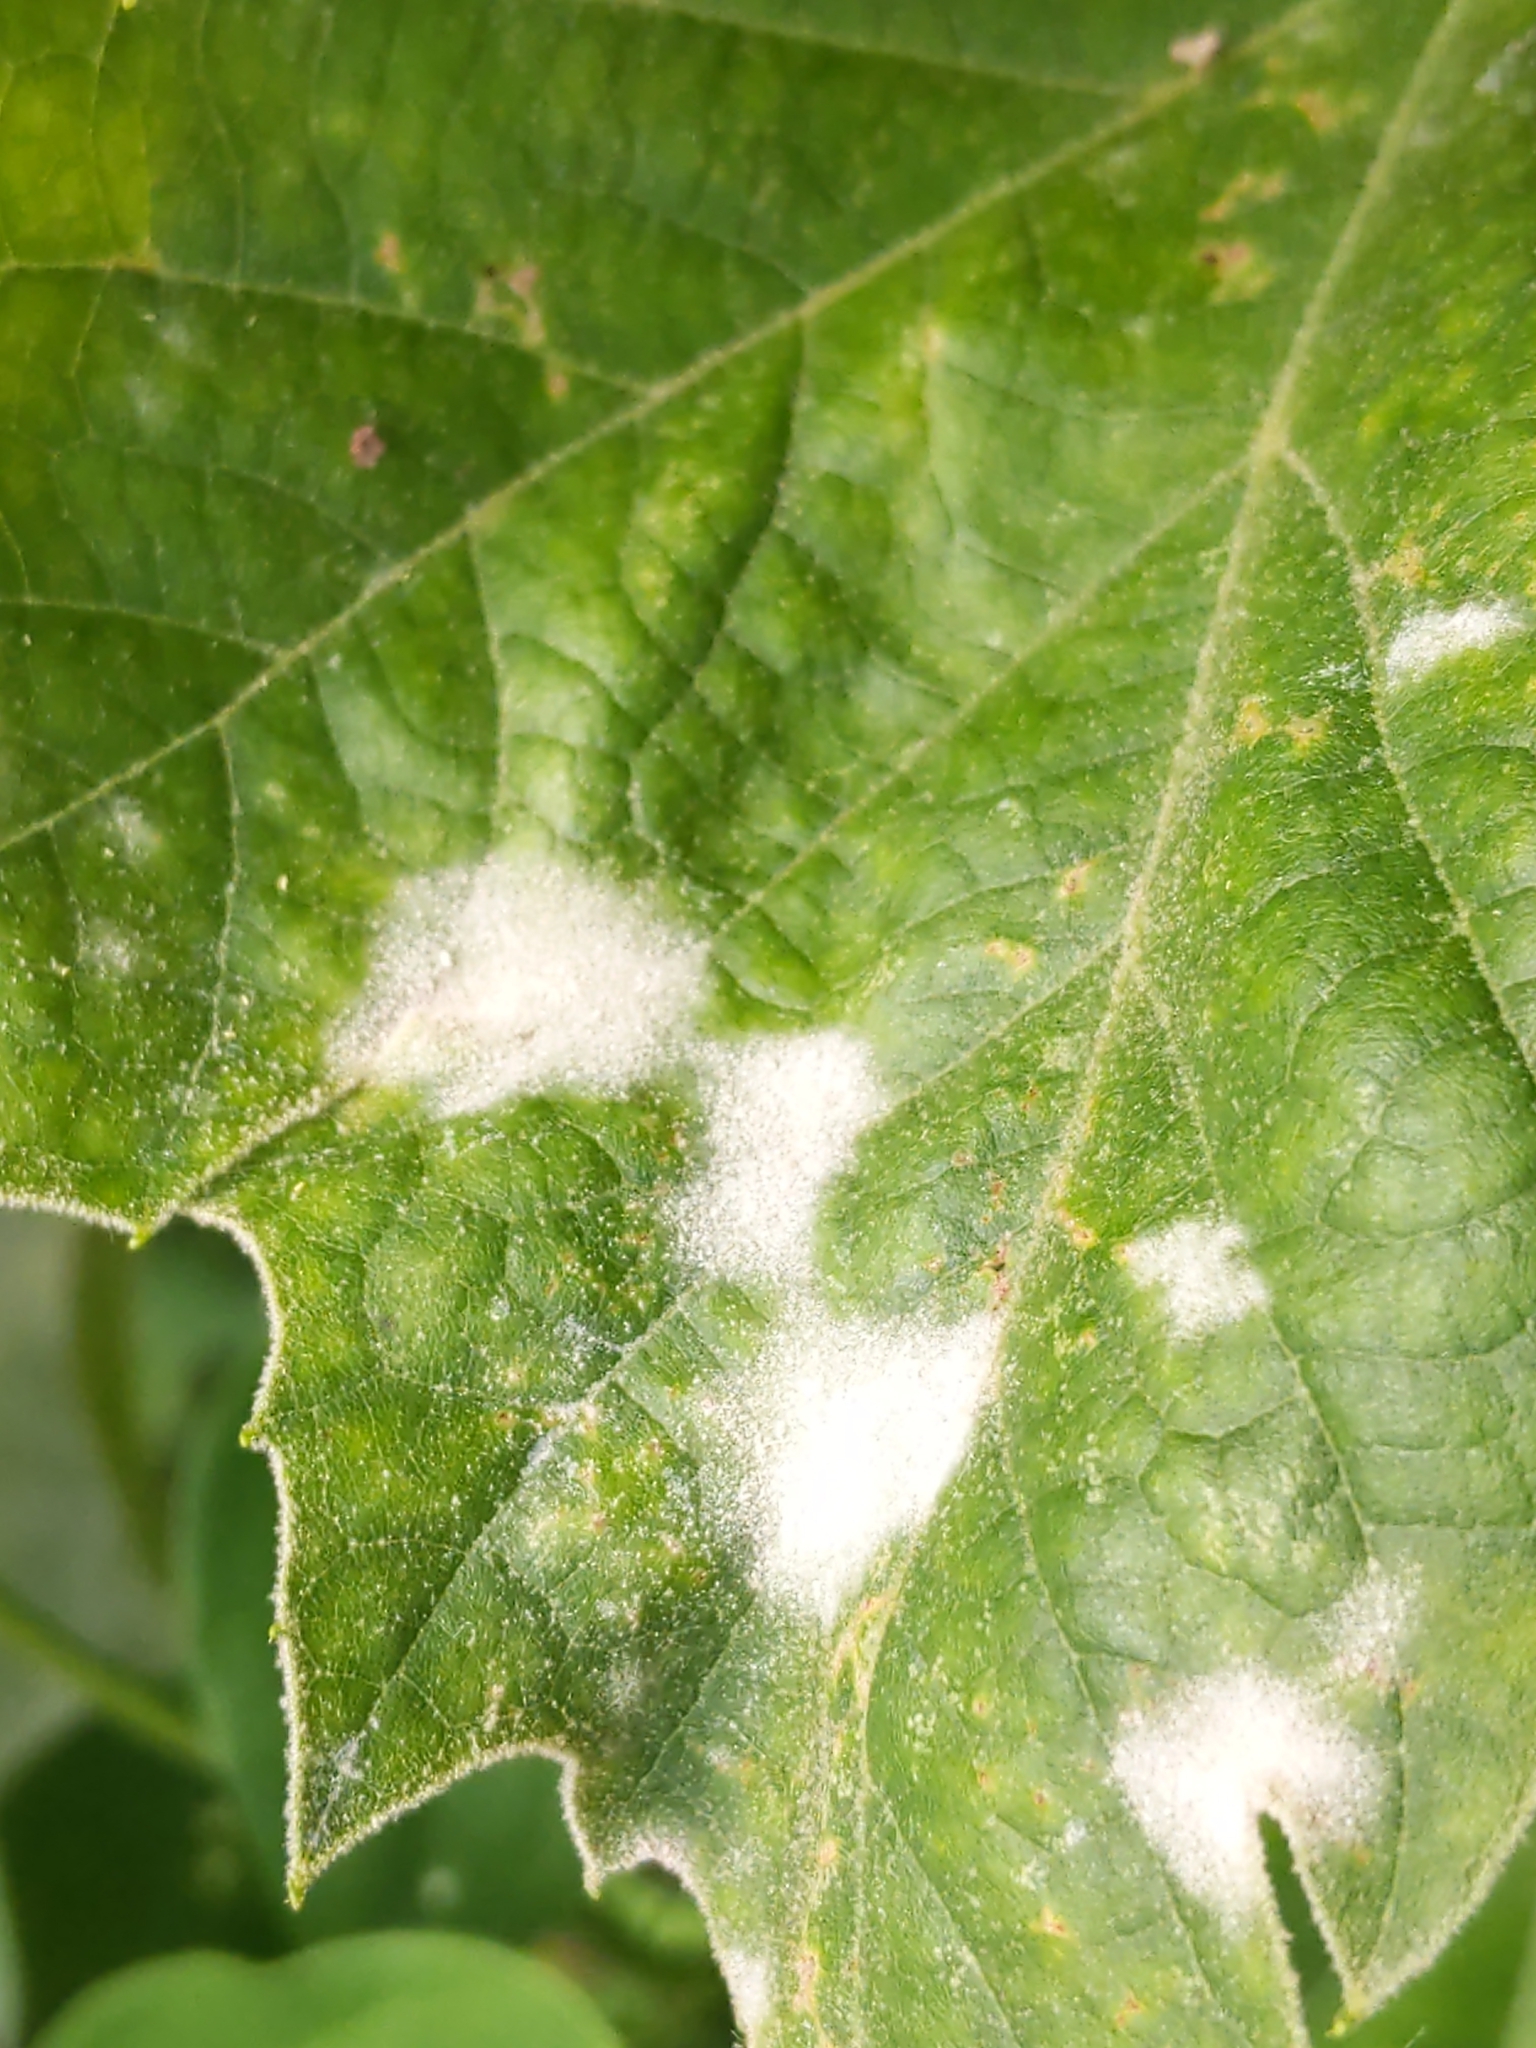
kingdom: Fungi
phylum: Ascomycota
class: Leotiomycetes
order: Helotiales
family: Erysiphaceae
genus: Erysiphe
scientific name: Erysiphe platani
